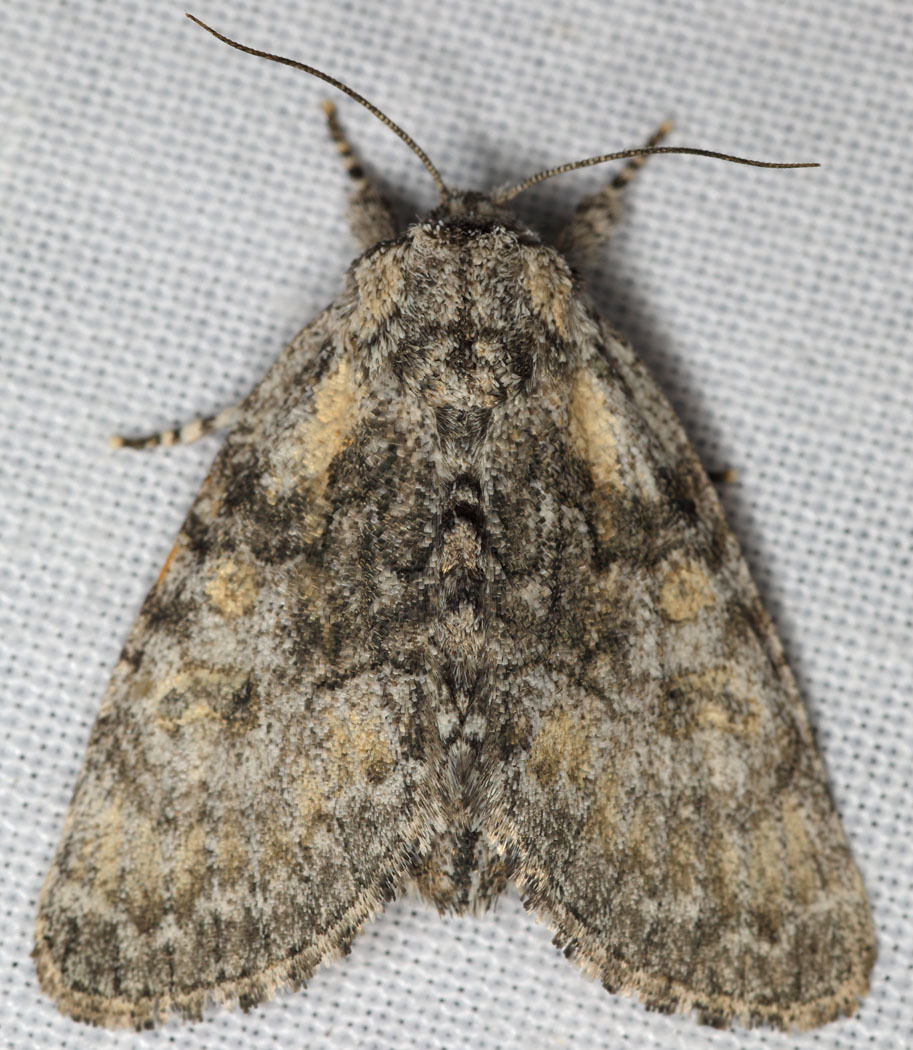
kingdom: Animalia
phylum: Arthropoda
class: Insecta
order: Lepidoptera
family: Noctuidae
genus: Raphia
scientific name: Raphia frater
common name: Brother
